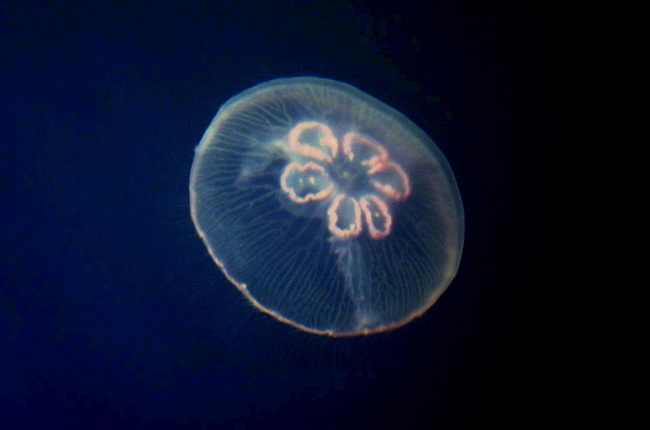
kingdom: Animalia
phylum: Cnidaria
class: Scyphozoa
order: Semaeostomeae
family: Ulmaridae
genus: Aurelia
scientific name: Aurelia aurita
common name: Moon jellyfish
